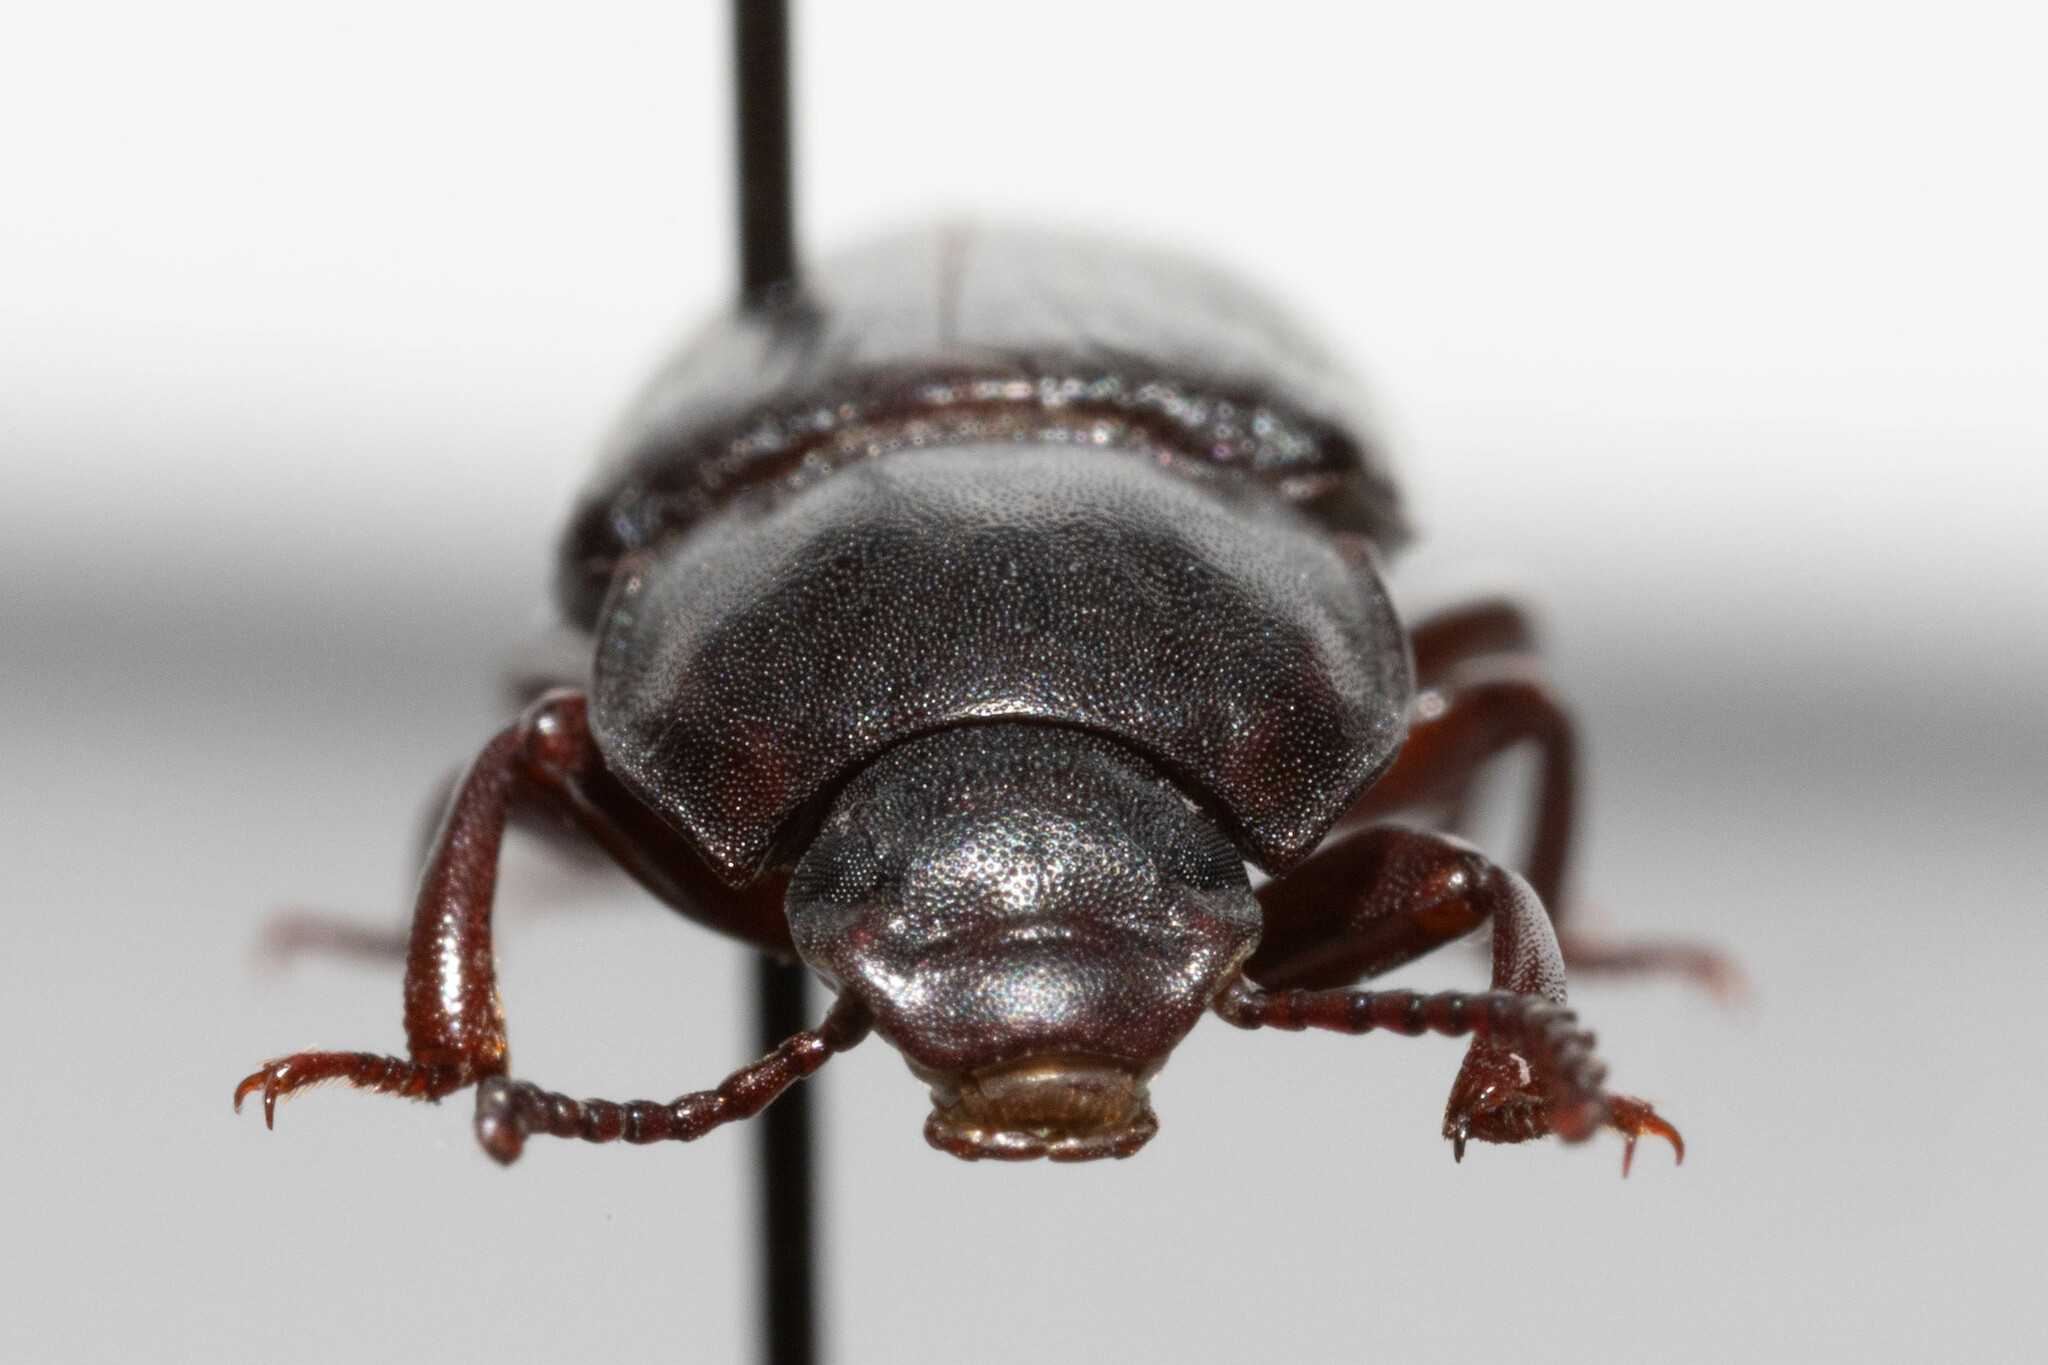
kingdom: Animalia
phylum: Arthropoda
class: Insecta
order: Coleoptera
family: Tenebrionidae
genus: Tenebrio
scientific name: Tenebrio molitor
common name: Hardback beetle
